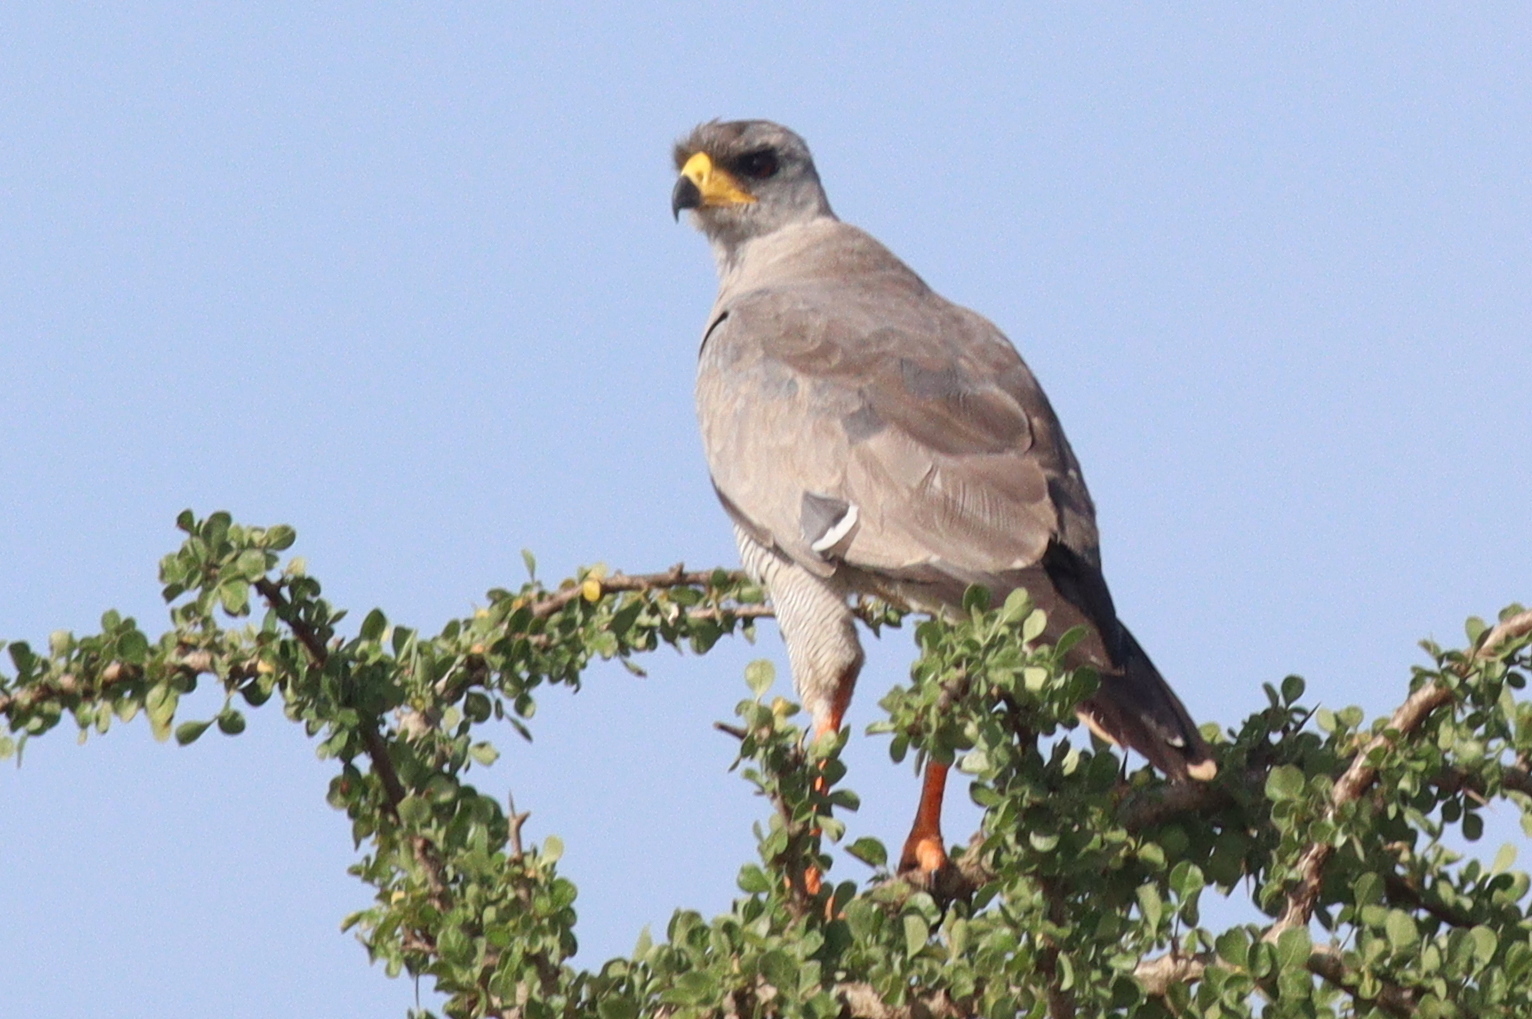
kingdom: Animalia
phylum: Chordata
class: Aves
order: Accipitriformes
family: Accipitridae
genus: Melierax
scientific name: Melierax poliopterus
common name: Eastern chanting goshawk
